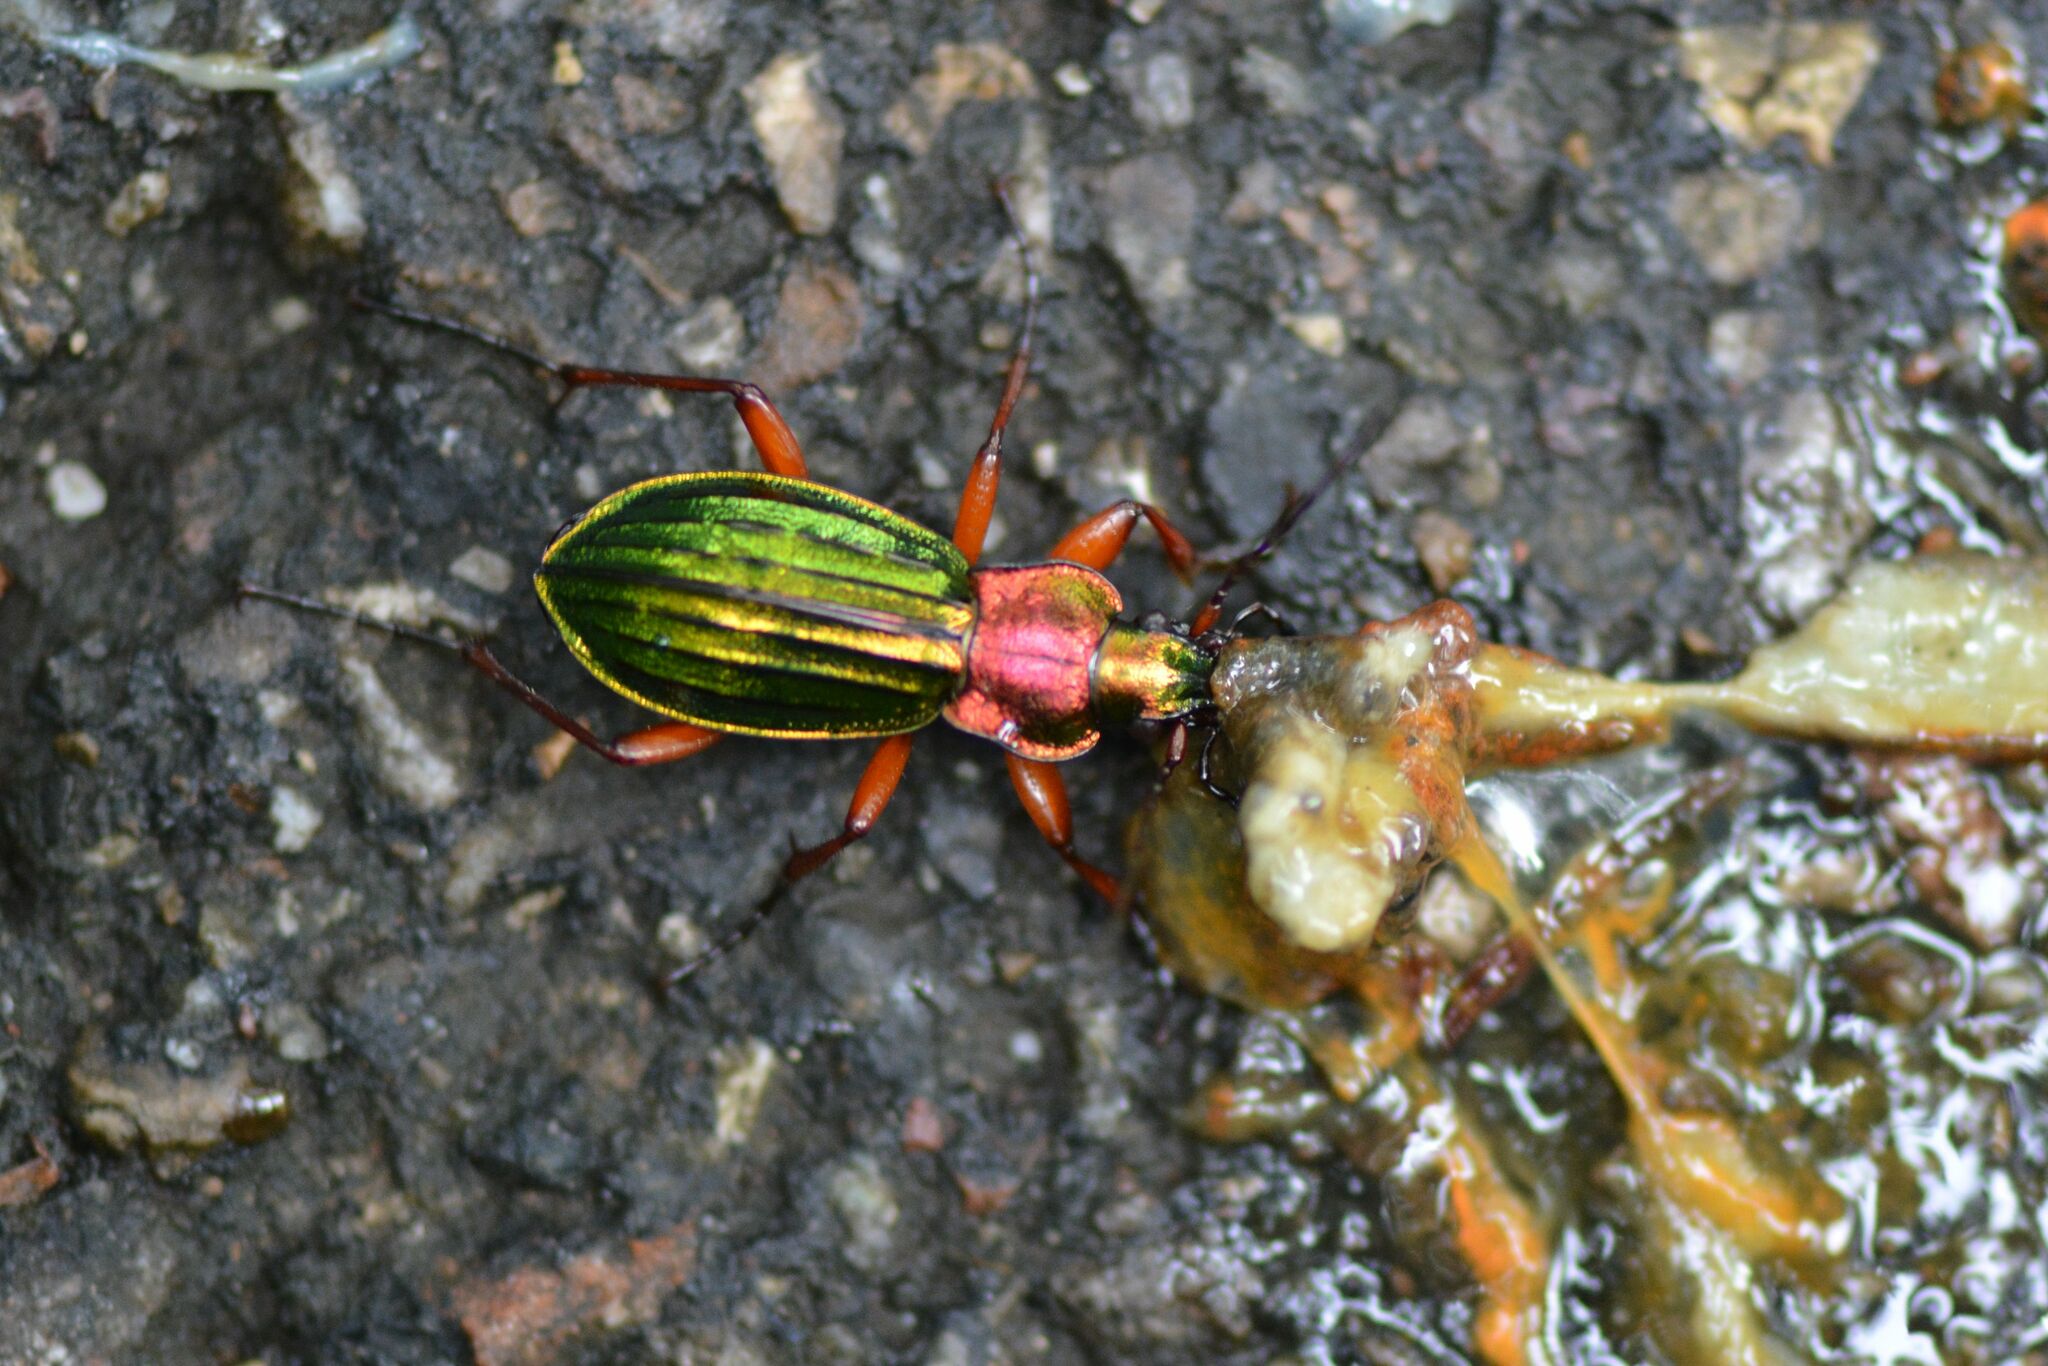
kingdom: Animalia
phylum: Arthropoda
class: Insecta
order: Coleoptera
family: Carabidae
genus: Carabus
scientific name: Carabus auronitens
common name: Carabus auronitens
